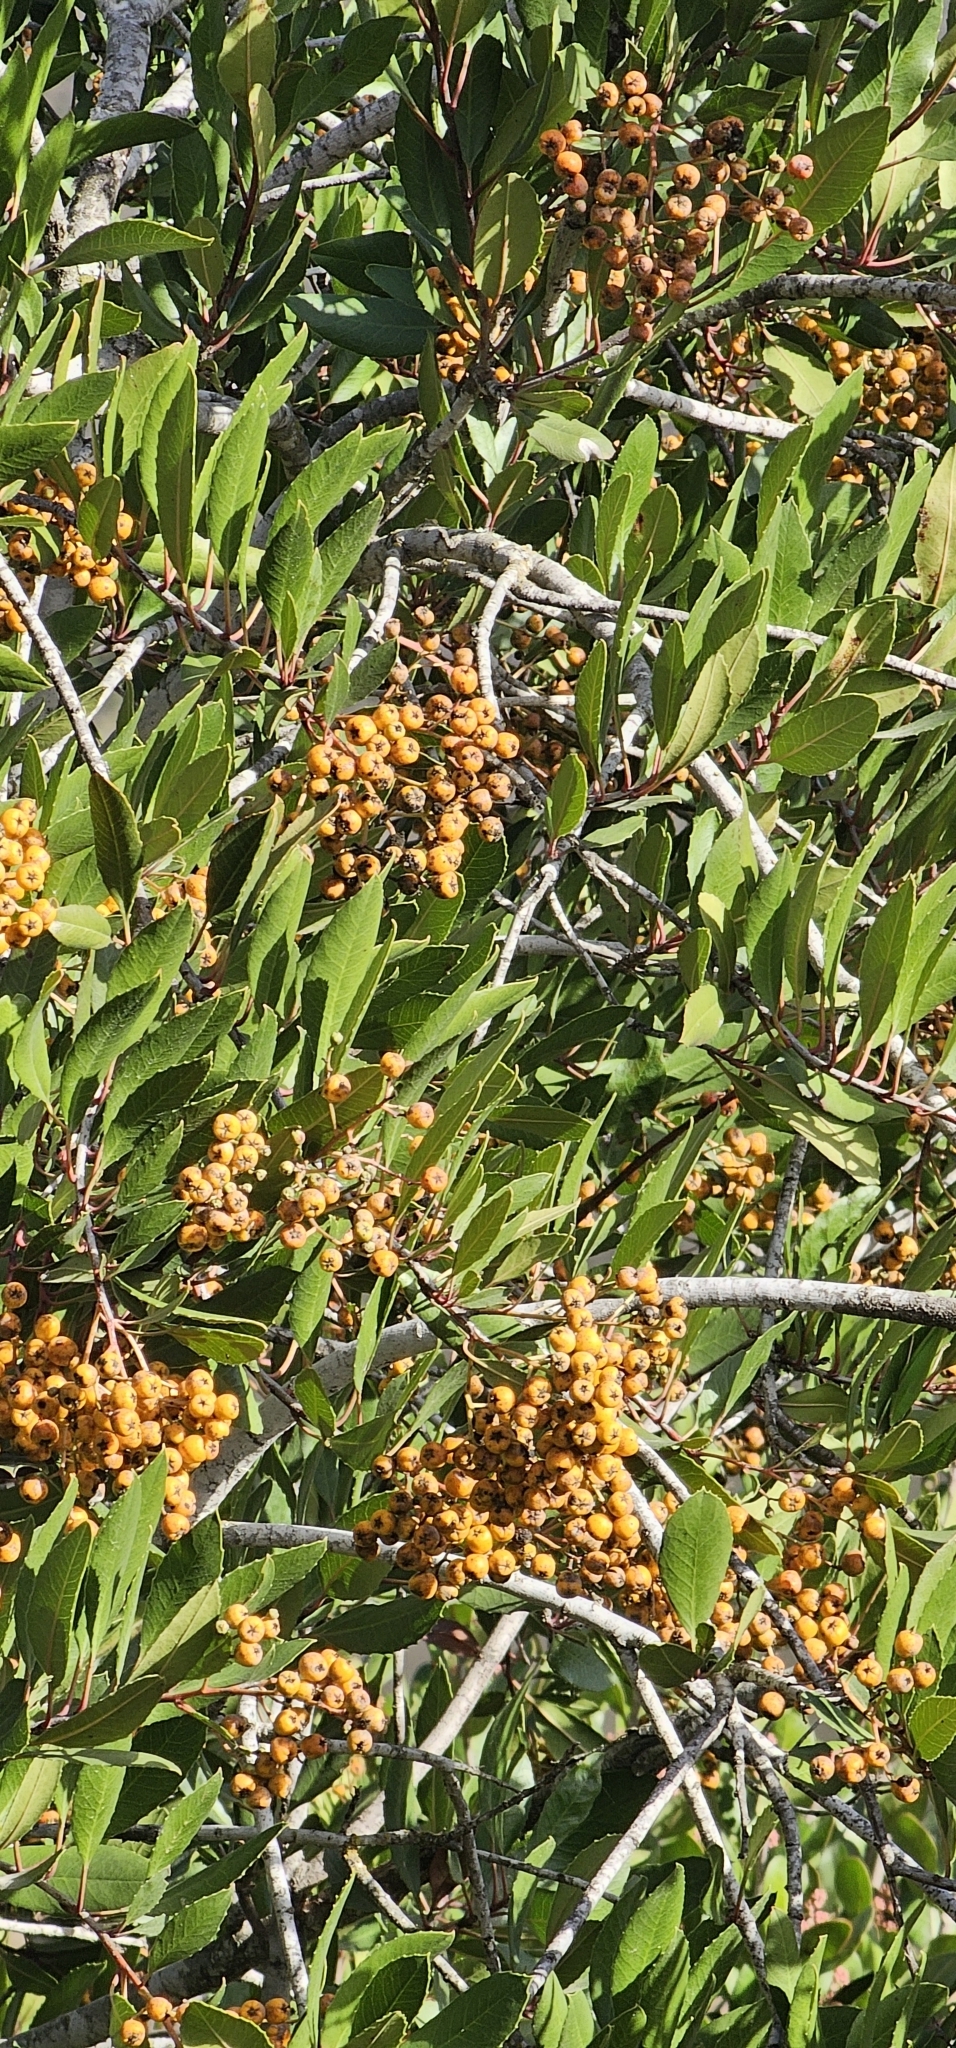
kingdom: Plantae
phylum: Tracheophyta
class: Magnoliopsida
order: Rosales
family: Rosaceae
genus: Heteromeles
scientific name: Heteromeles arbutifolia
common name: California-holly
